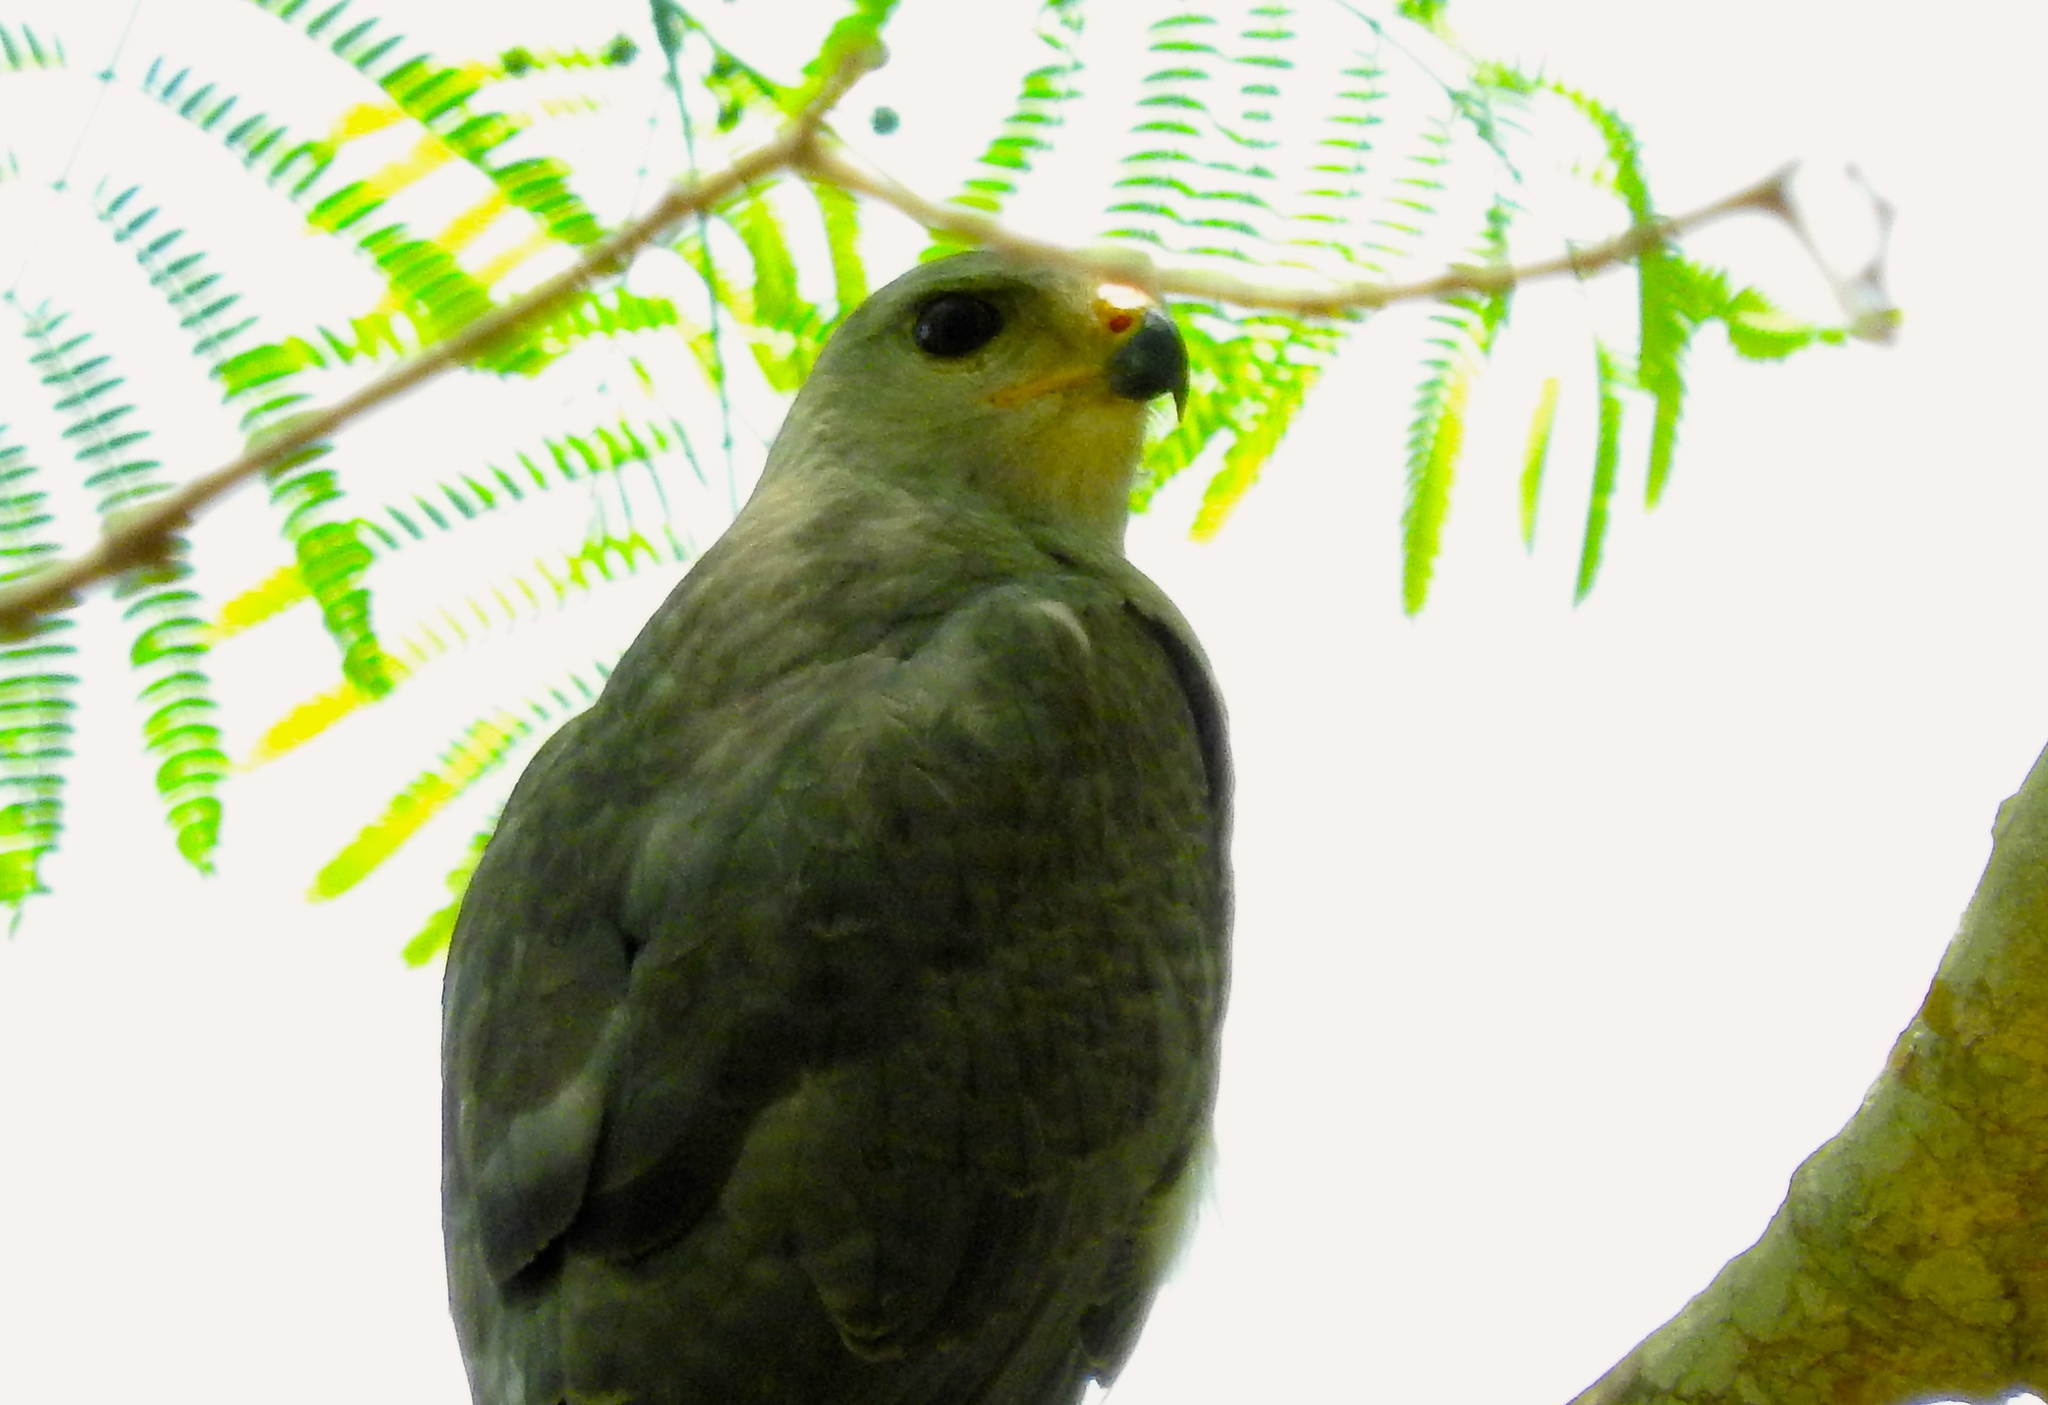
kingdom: Animalia
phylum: Chordata
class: Aves
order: Accipitriformes
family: Accipitridae
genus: Buteo
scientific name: Buteo nitidus
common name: Grey-lined hawk
